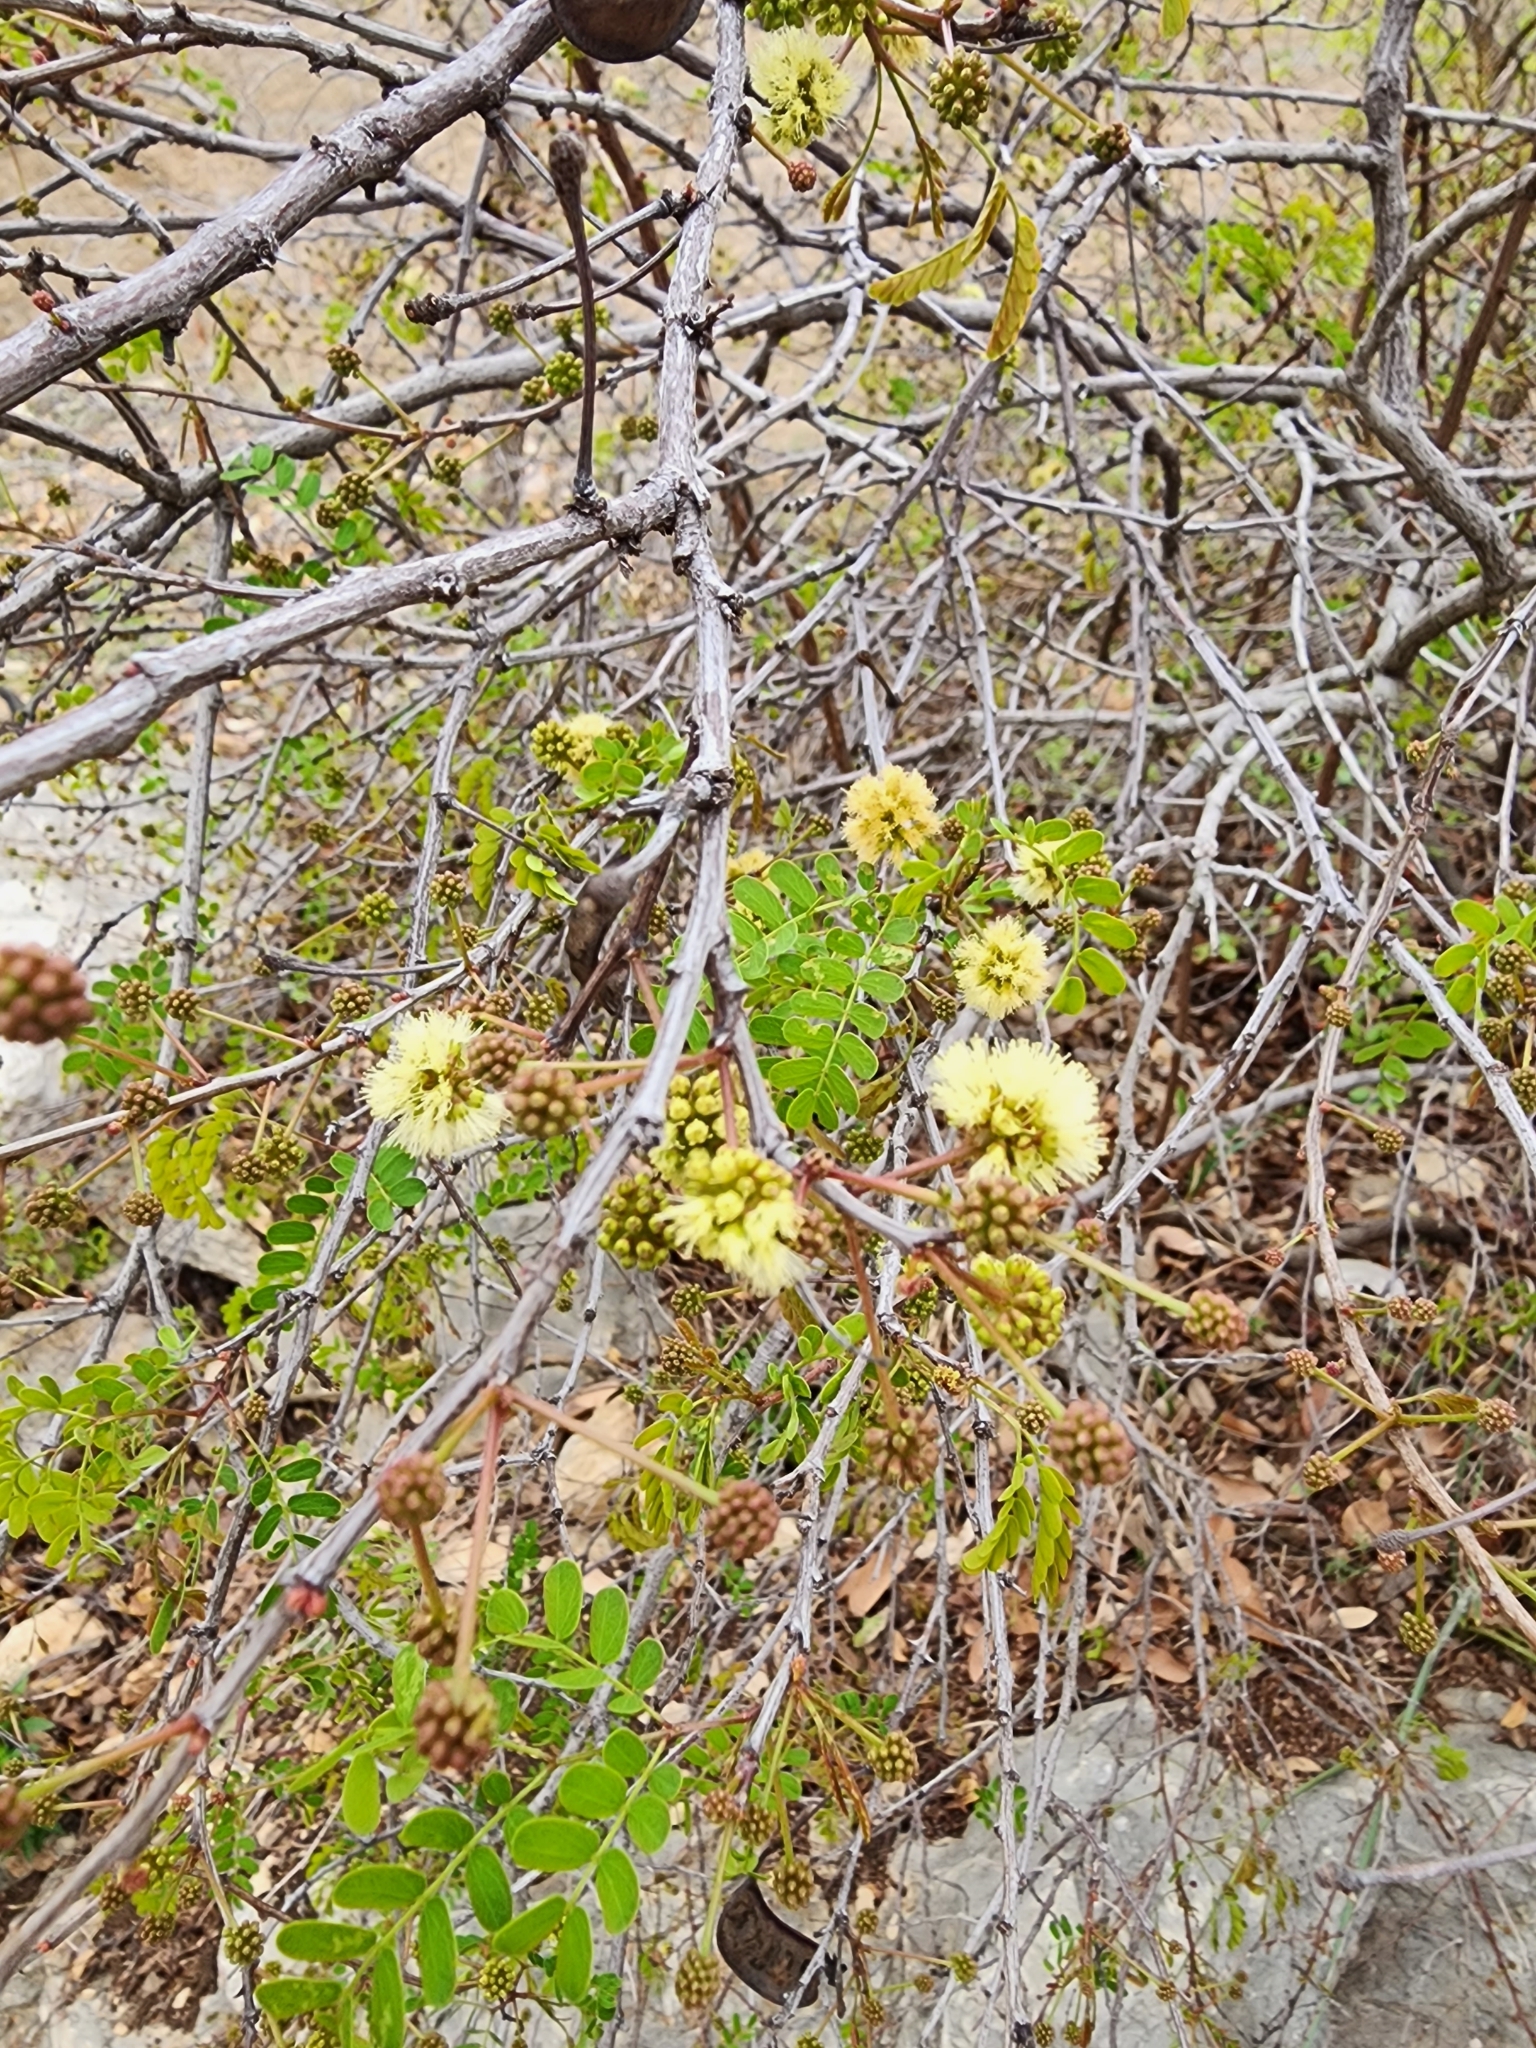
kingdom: Plantae
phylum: Tracheophyta
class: Magnoliopsida
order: Fabales
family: Fabaceae
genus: Senegalia
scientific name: Senegalia roemeriana
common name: Roemer's acacia
